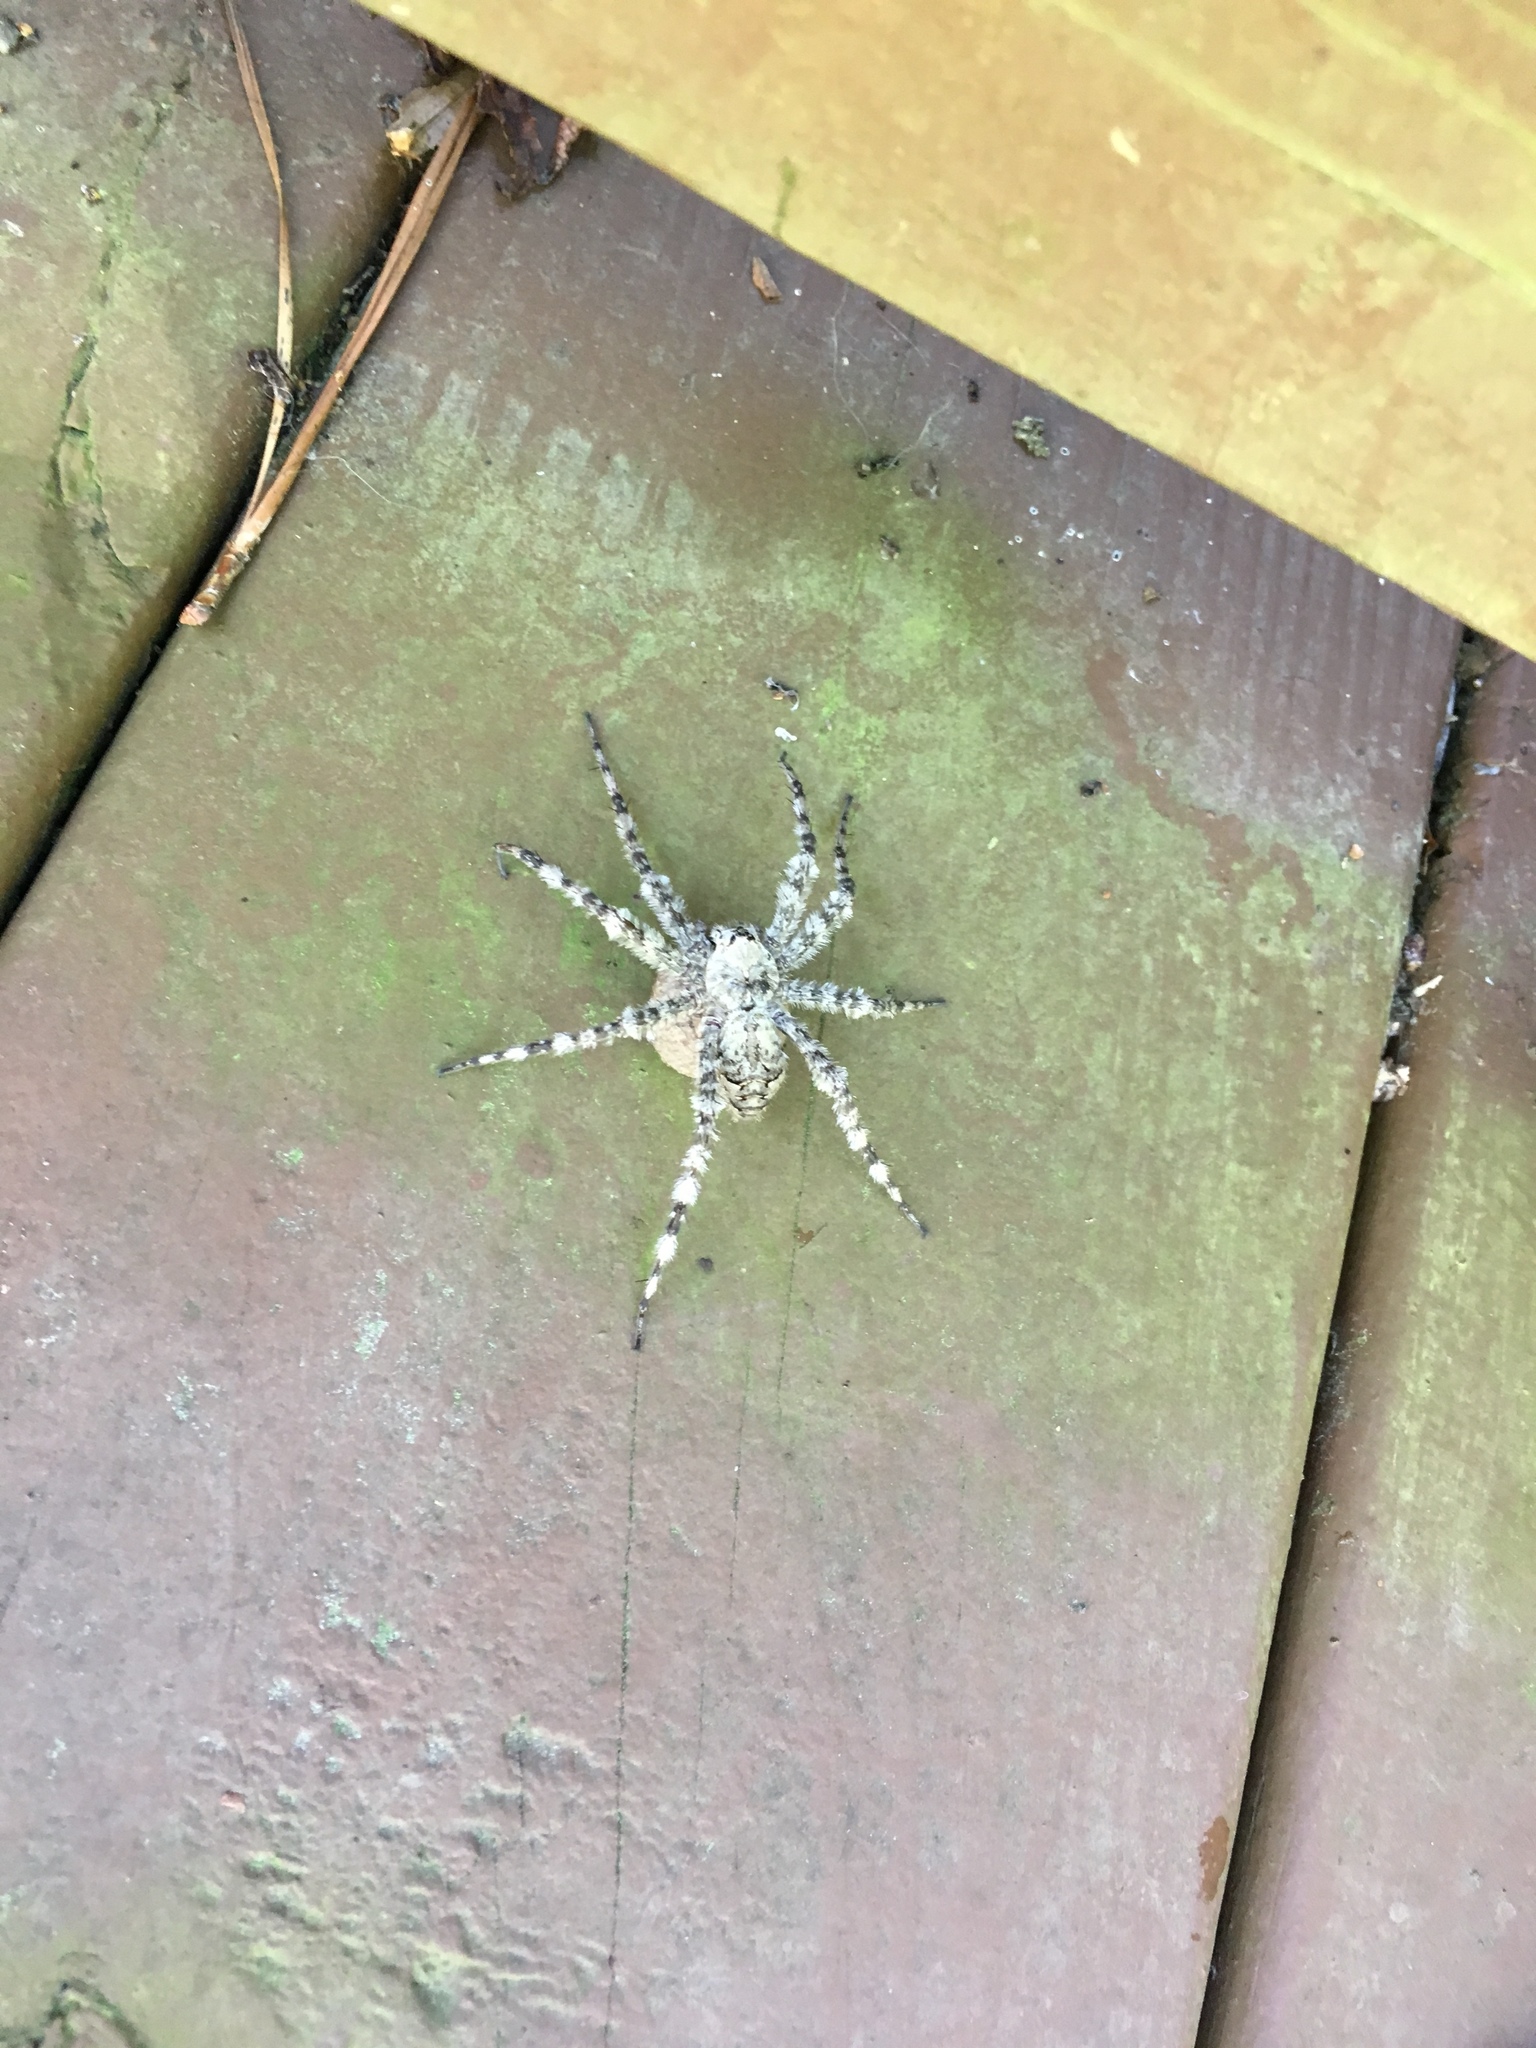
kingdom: Animalia
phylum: Arthropoda
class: Arachnida
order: Araneae
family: Pisauridae
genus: Dolomedes
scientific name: Dolomedes albineus
